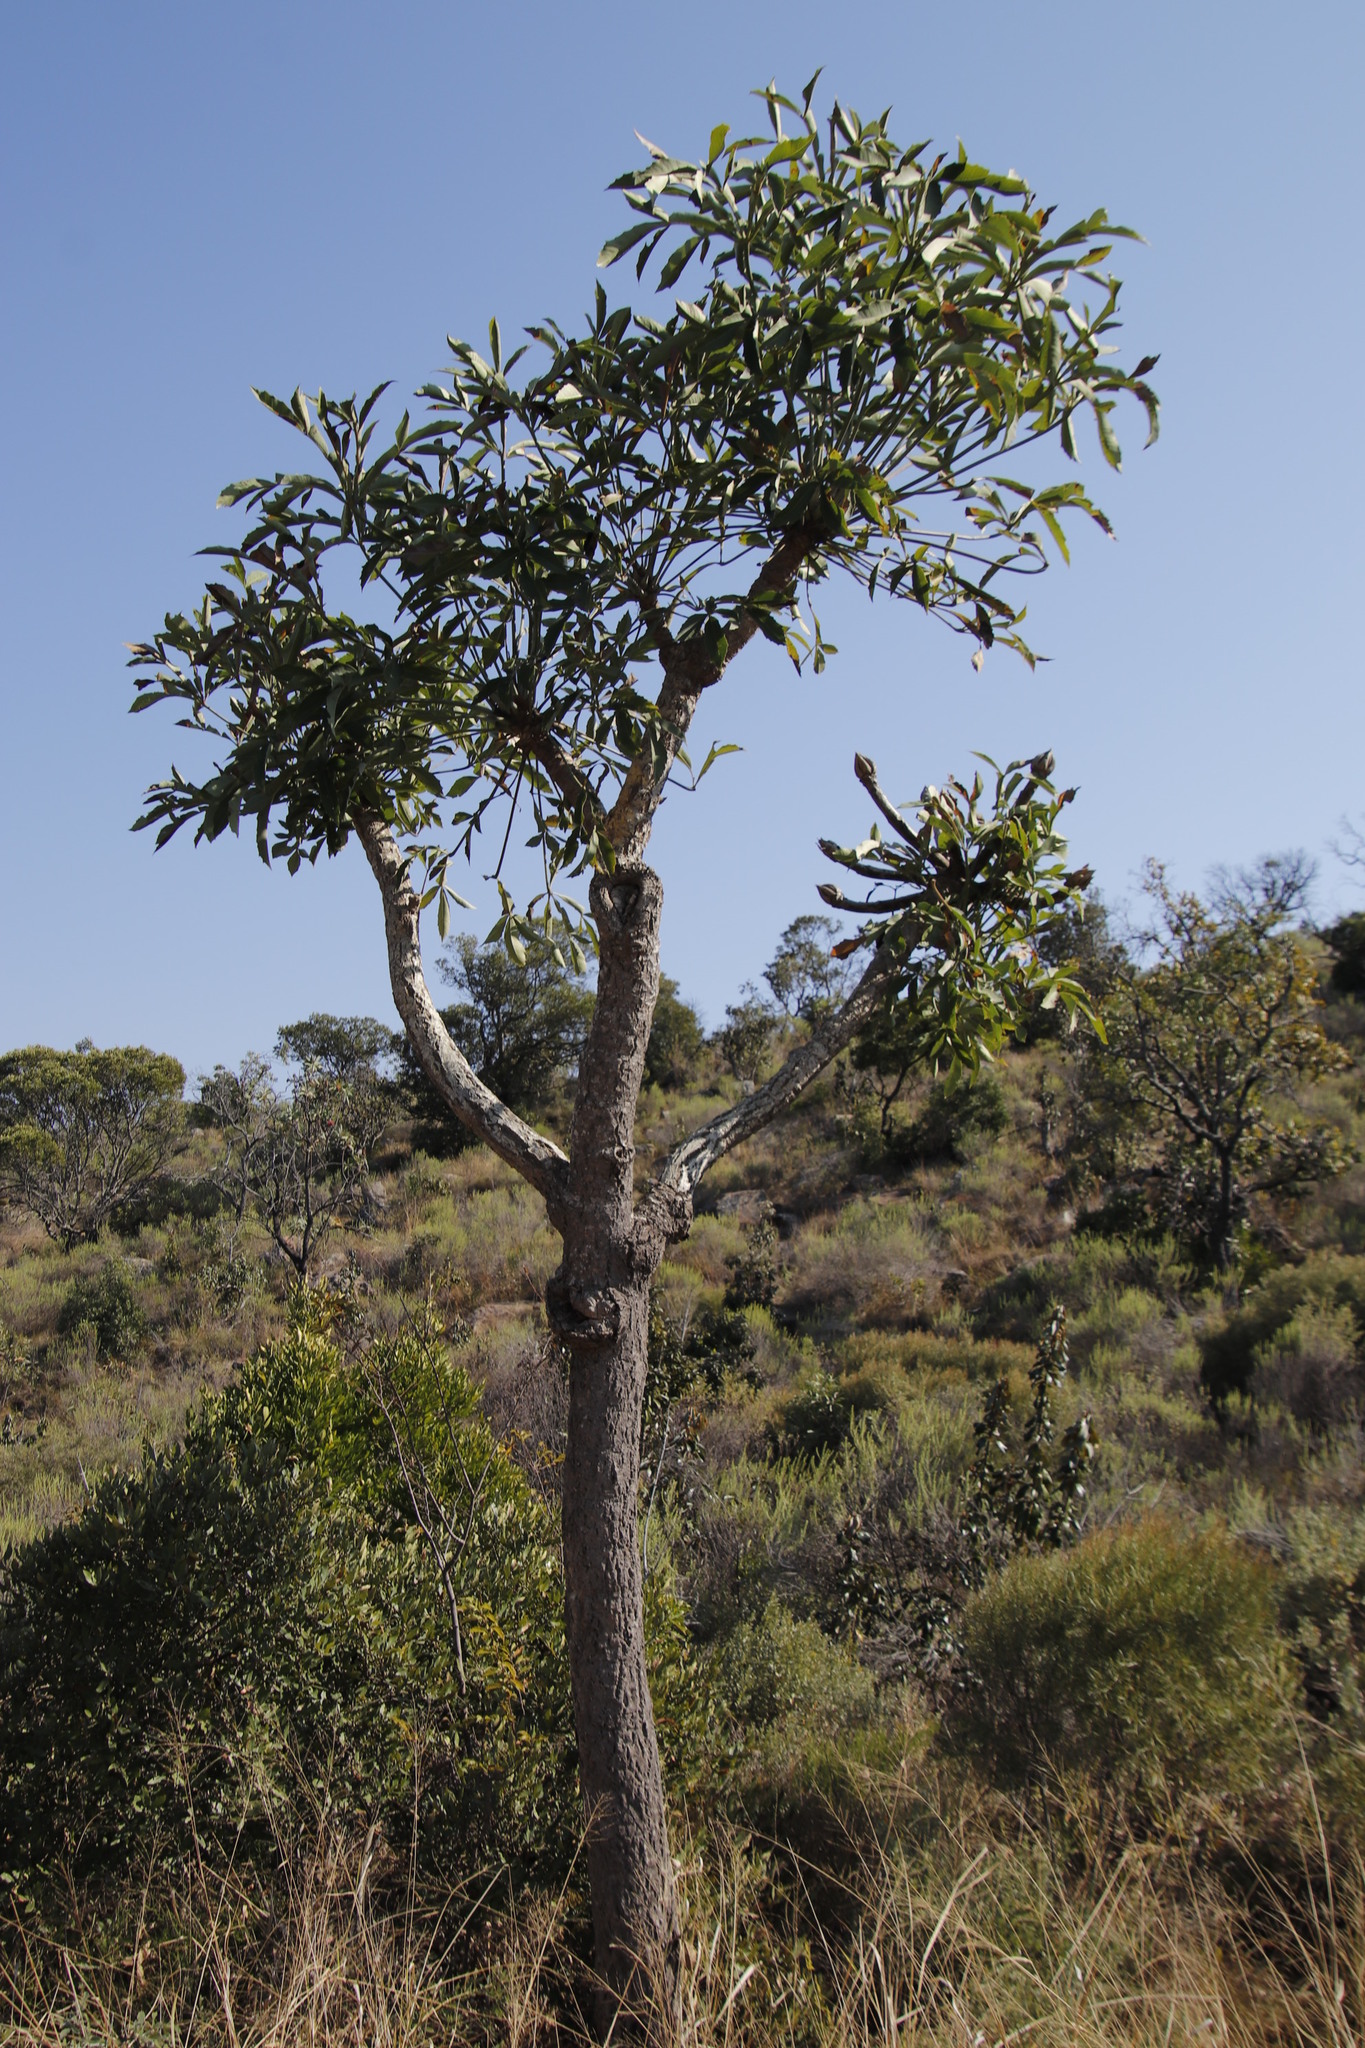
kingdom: Plantae
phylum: Tracheophyta
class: Magnoliopsida
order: Apiales
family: Araliaceae
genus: Cussonia
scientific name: Cussonia spicata
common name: Common cabbagetree
